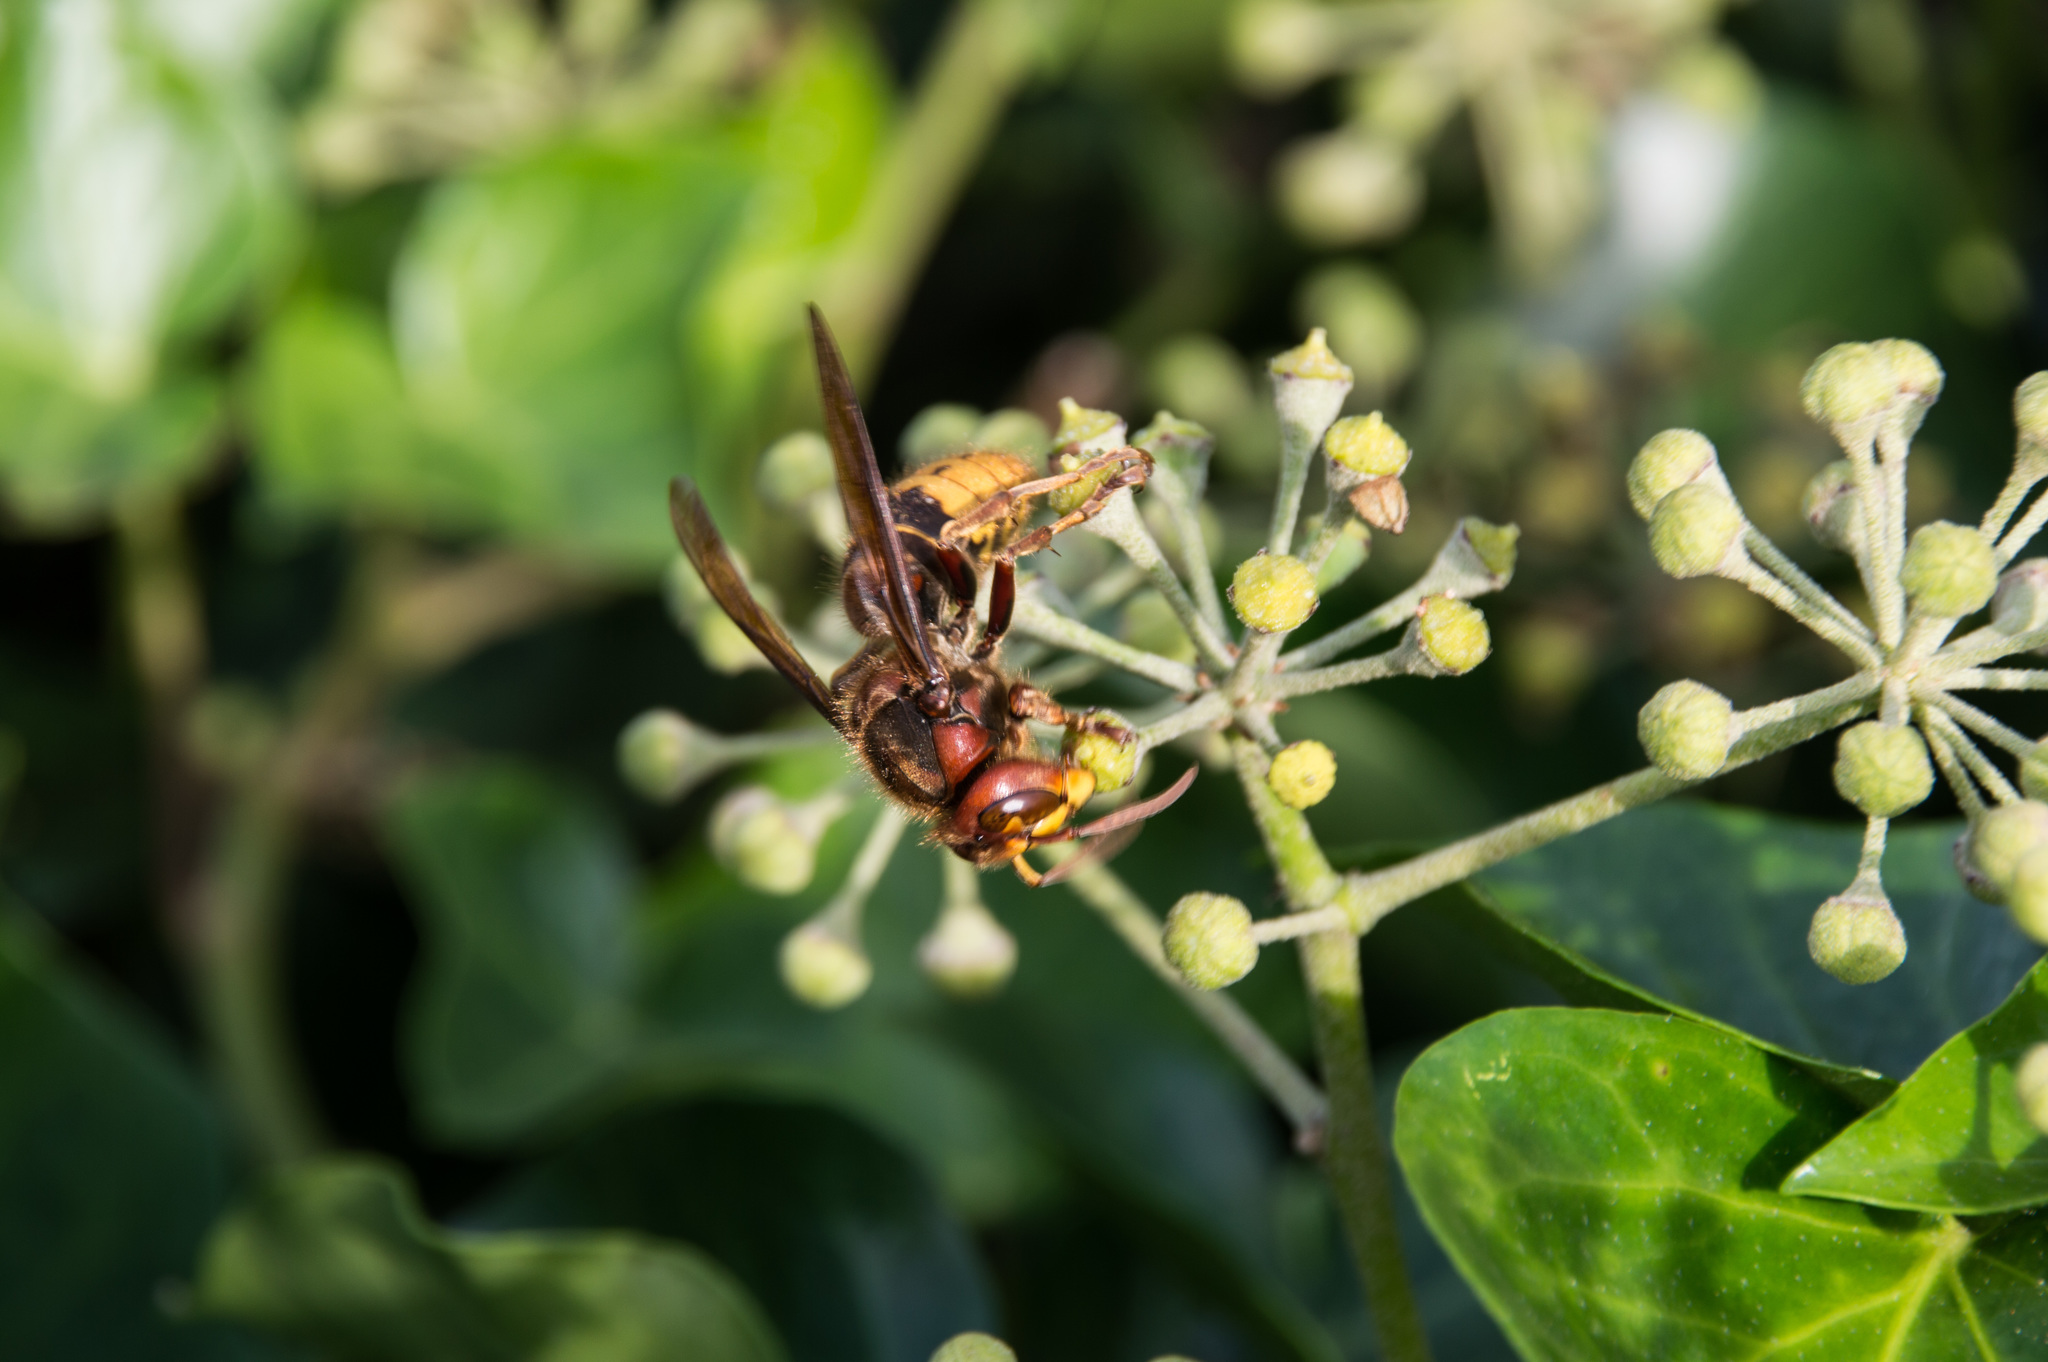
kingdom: Animalia
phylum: Arthropoda
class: Insecta
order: Hymenoptera
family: Vespidae
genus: Vespa
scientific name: Vespa crabro
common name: Hornet
